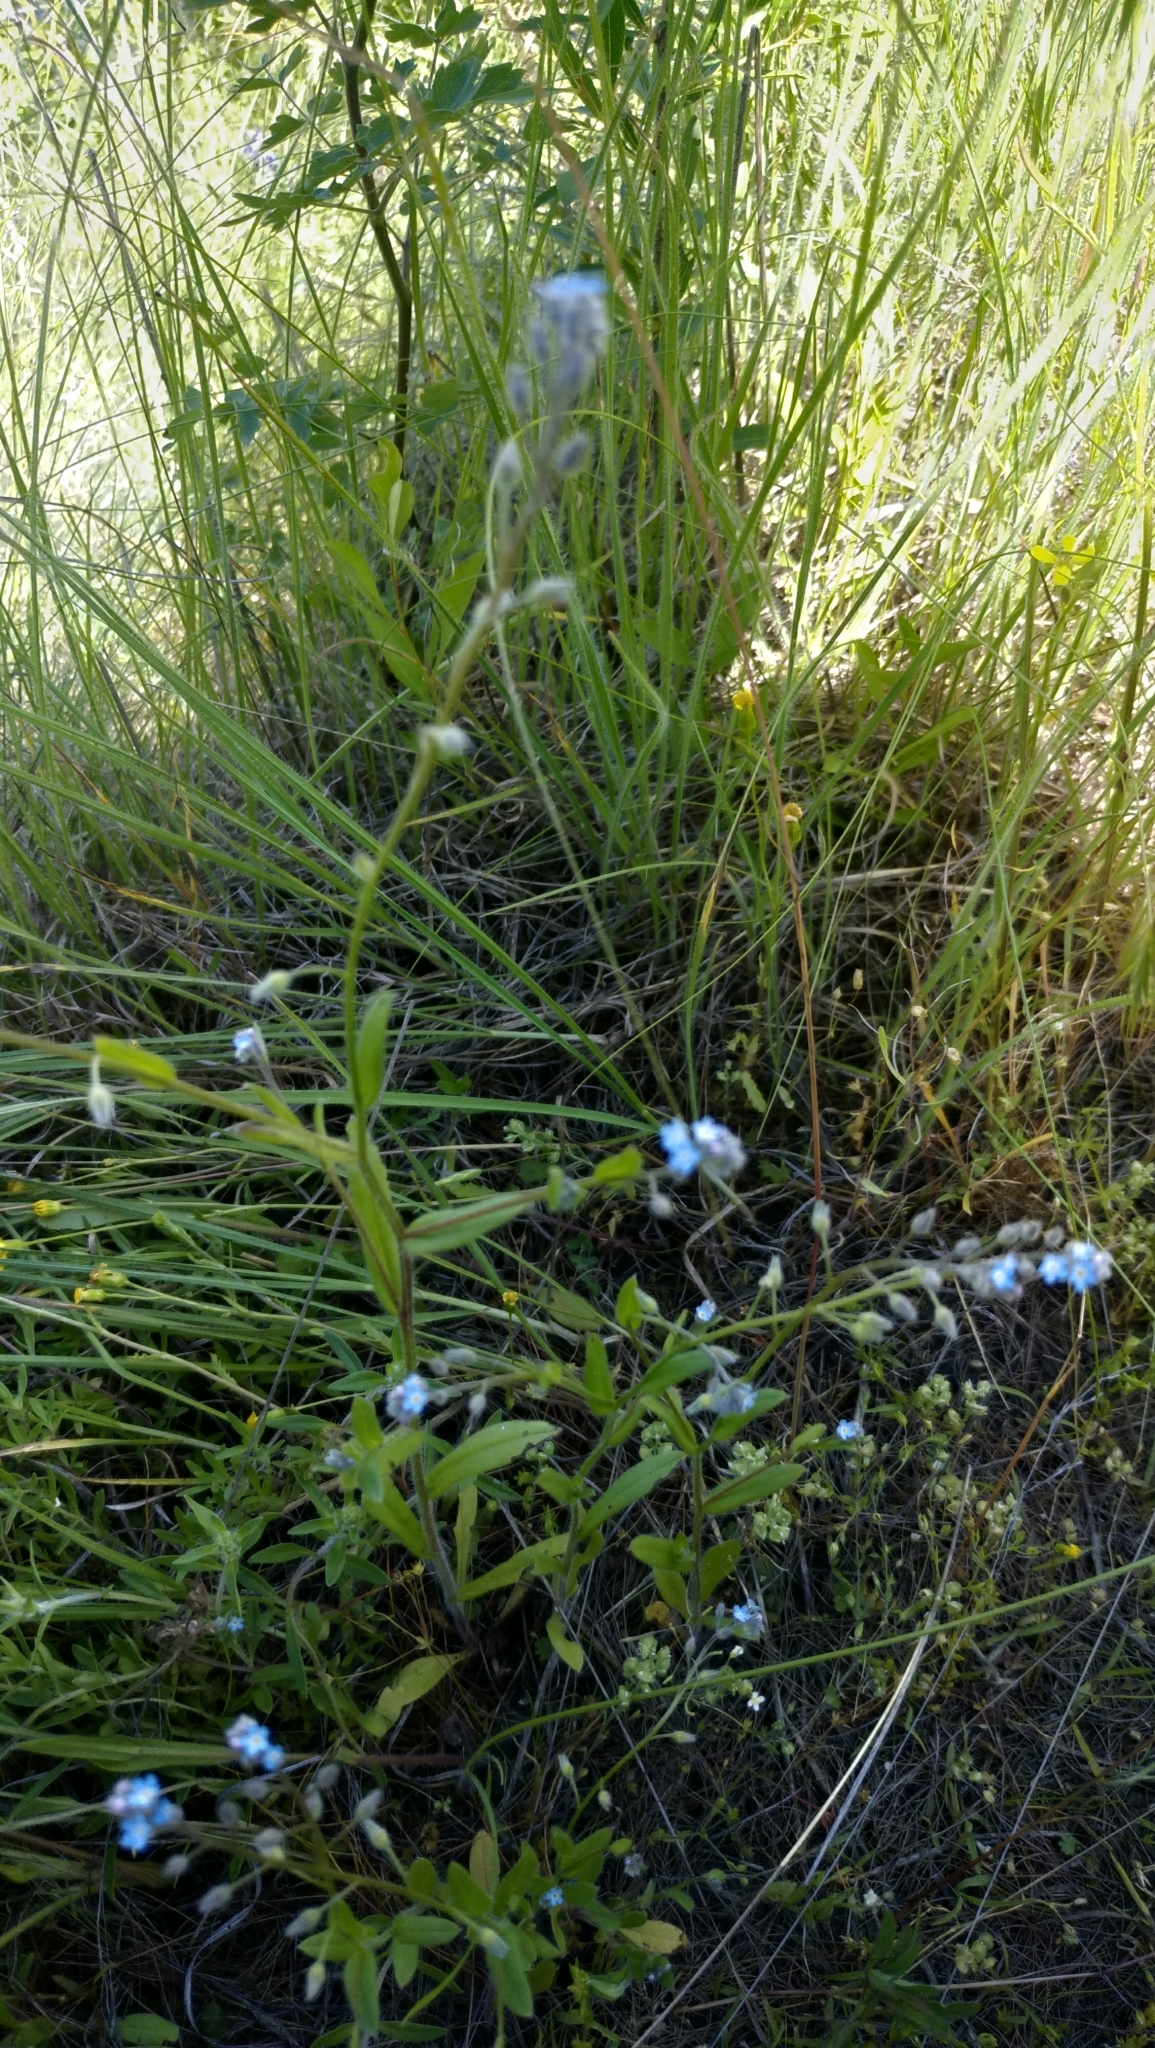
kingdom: Plantae
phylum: Tracheophyta
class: Magnoliopsida
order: Boraginales
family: Boraginaceae
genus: Myosotis
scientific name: Myosotis arvensis
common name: Field forget-me-not
